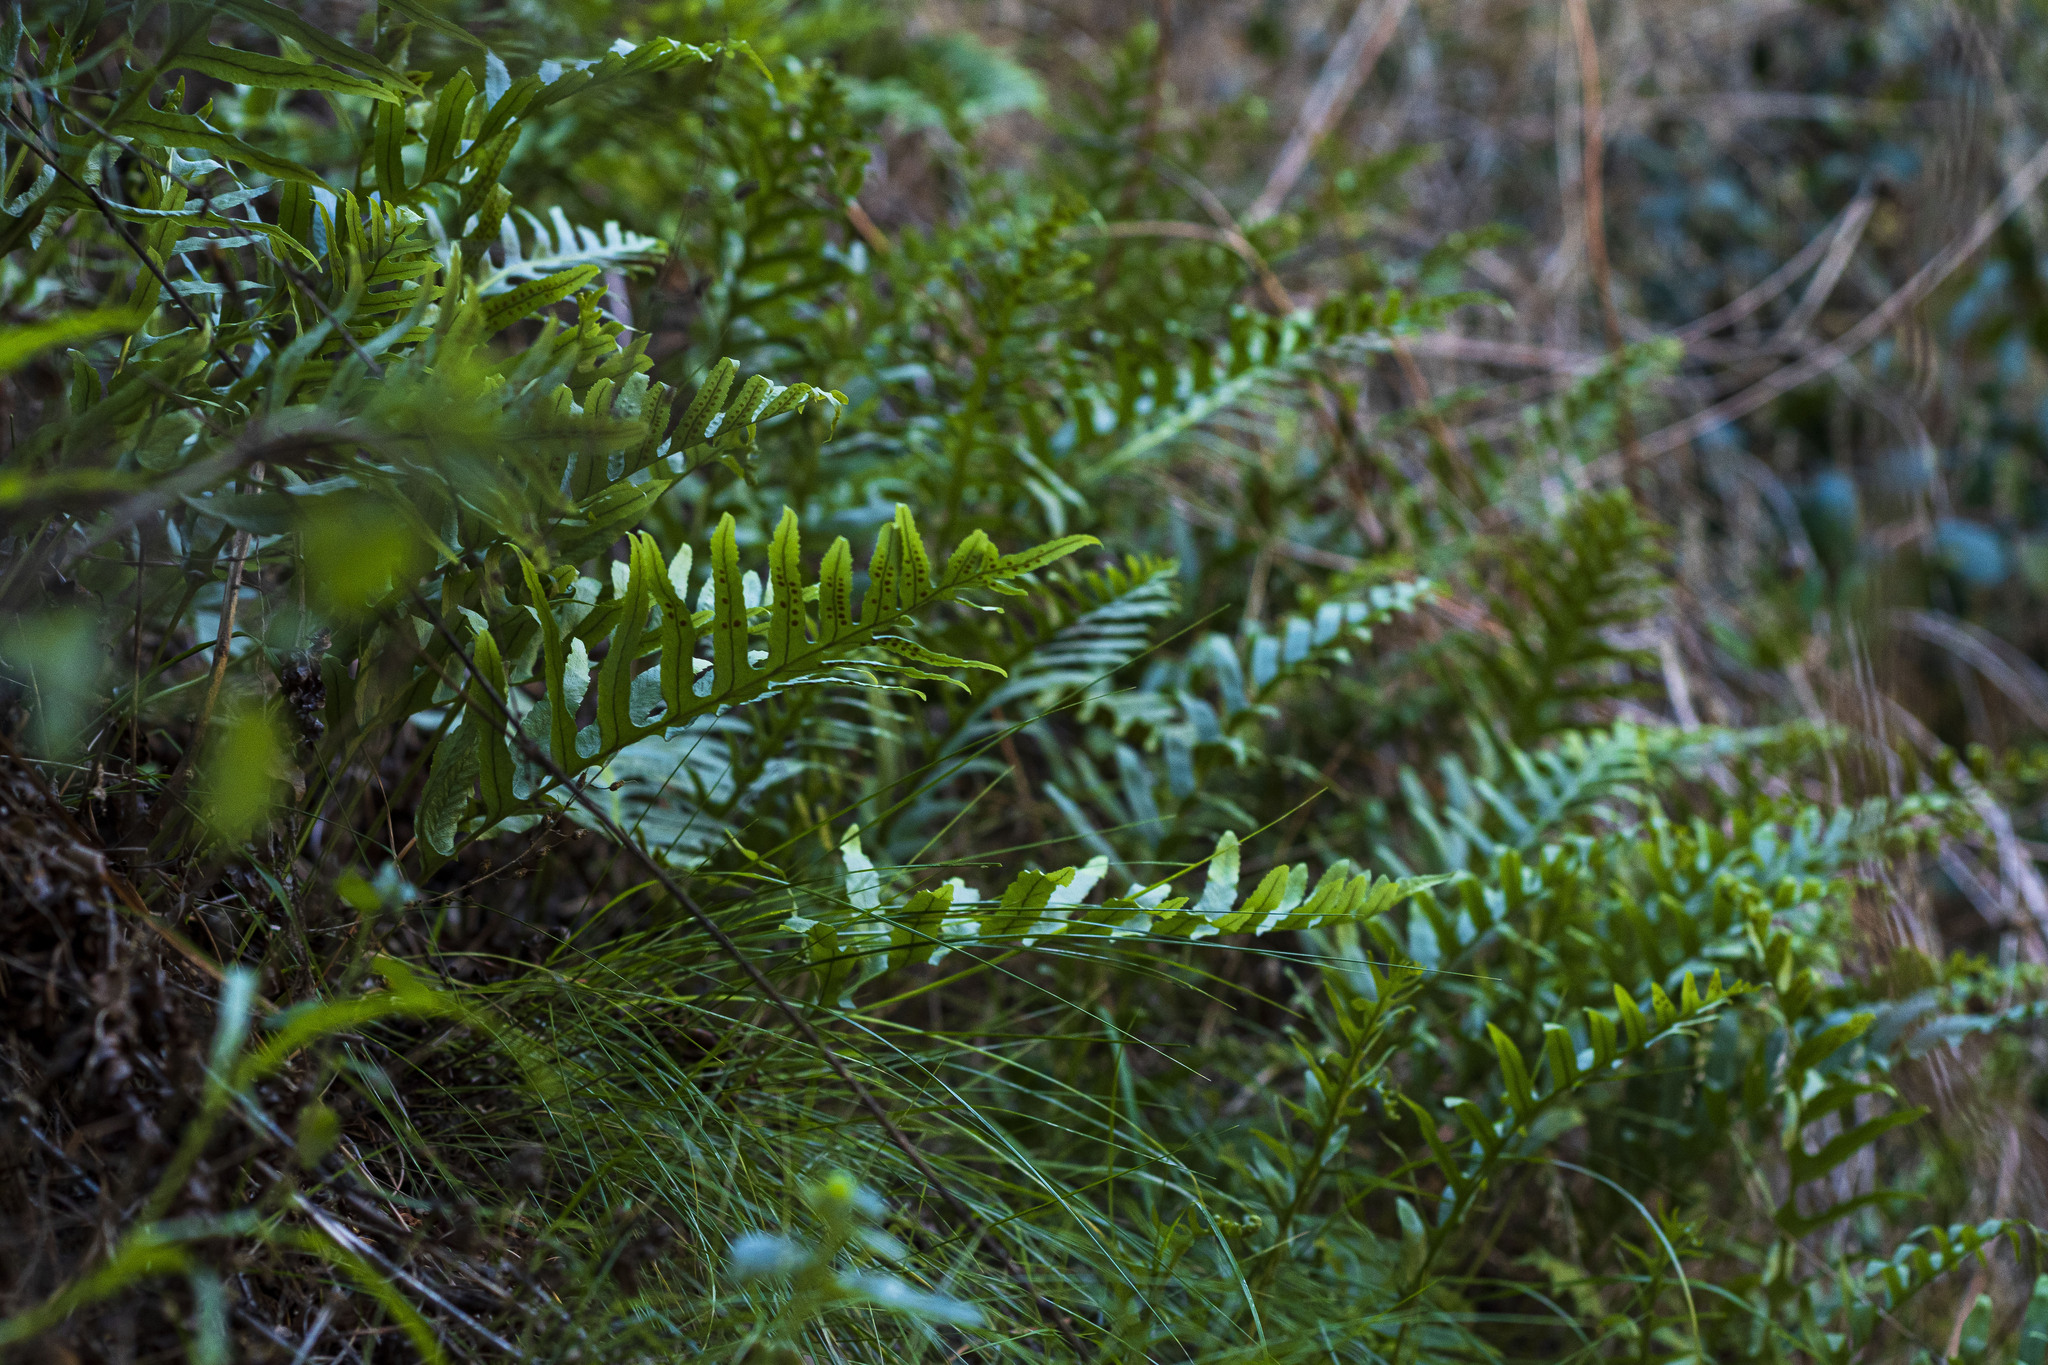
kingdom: Plantae
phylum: Tracheophyta
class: Polypodiopsida
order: Polypodiales
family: Polypodiaceae
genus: Polypodium
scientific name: Polypodium californicum
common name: California polypody
